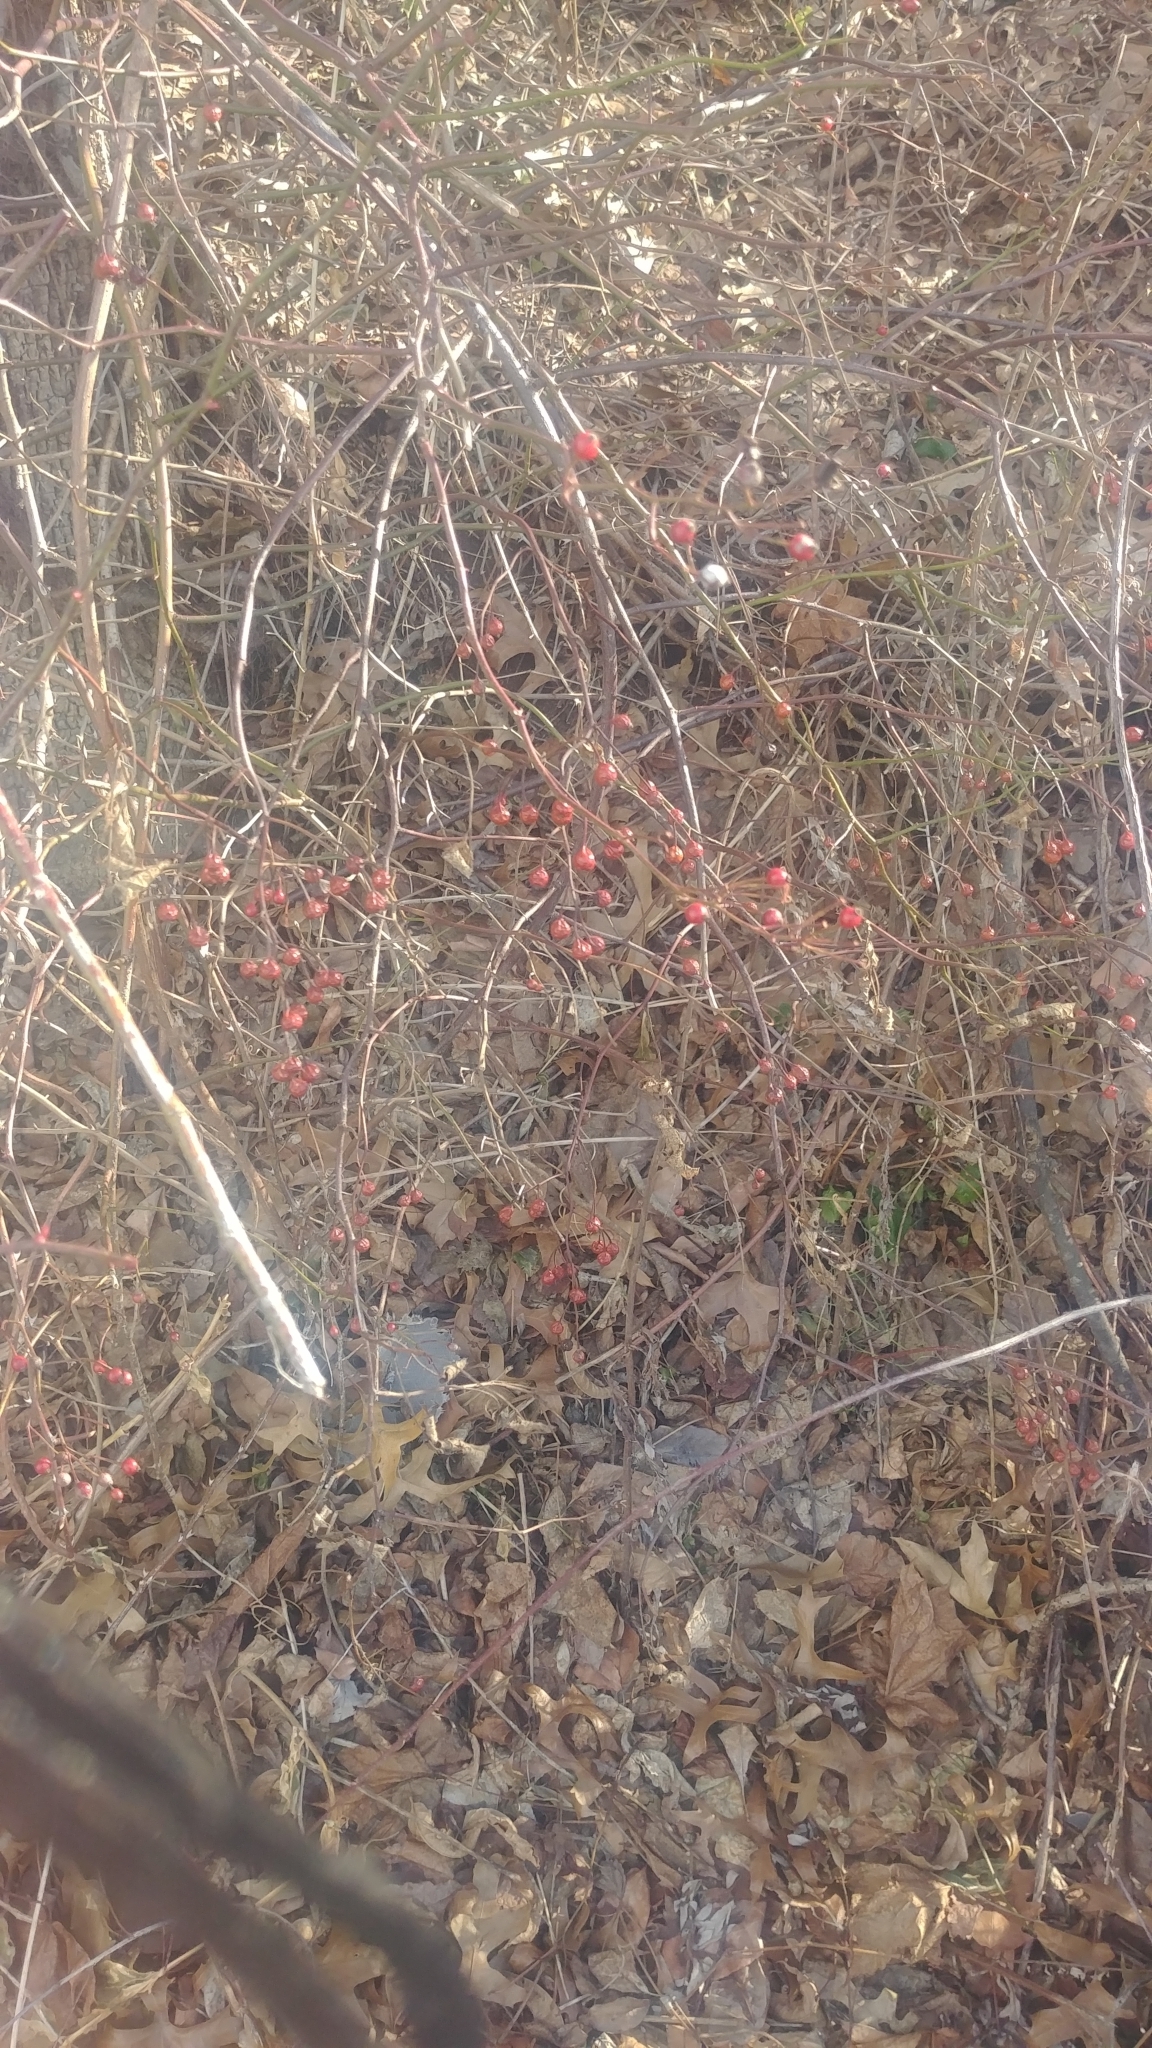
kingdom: Plantae
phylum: Tracheophyta
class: Magnoliopsida
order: Rosales
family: Rosaceae
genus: Rosa
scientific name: Rosa multiflora
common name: Multiflora rose
